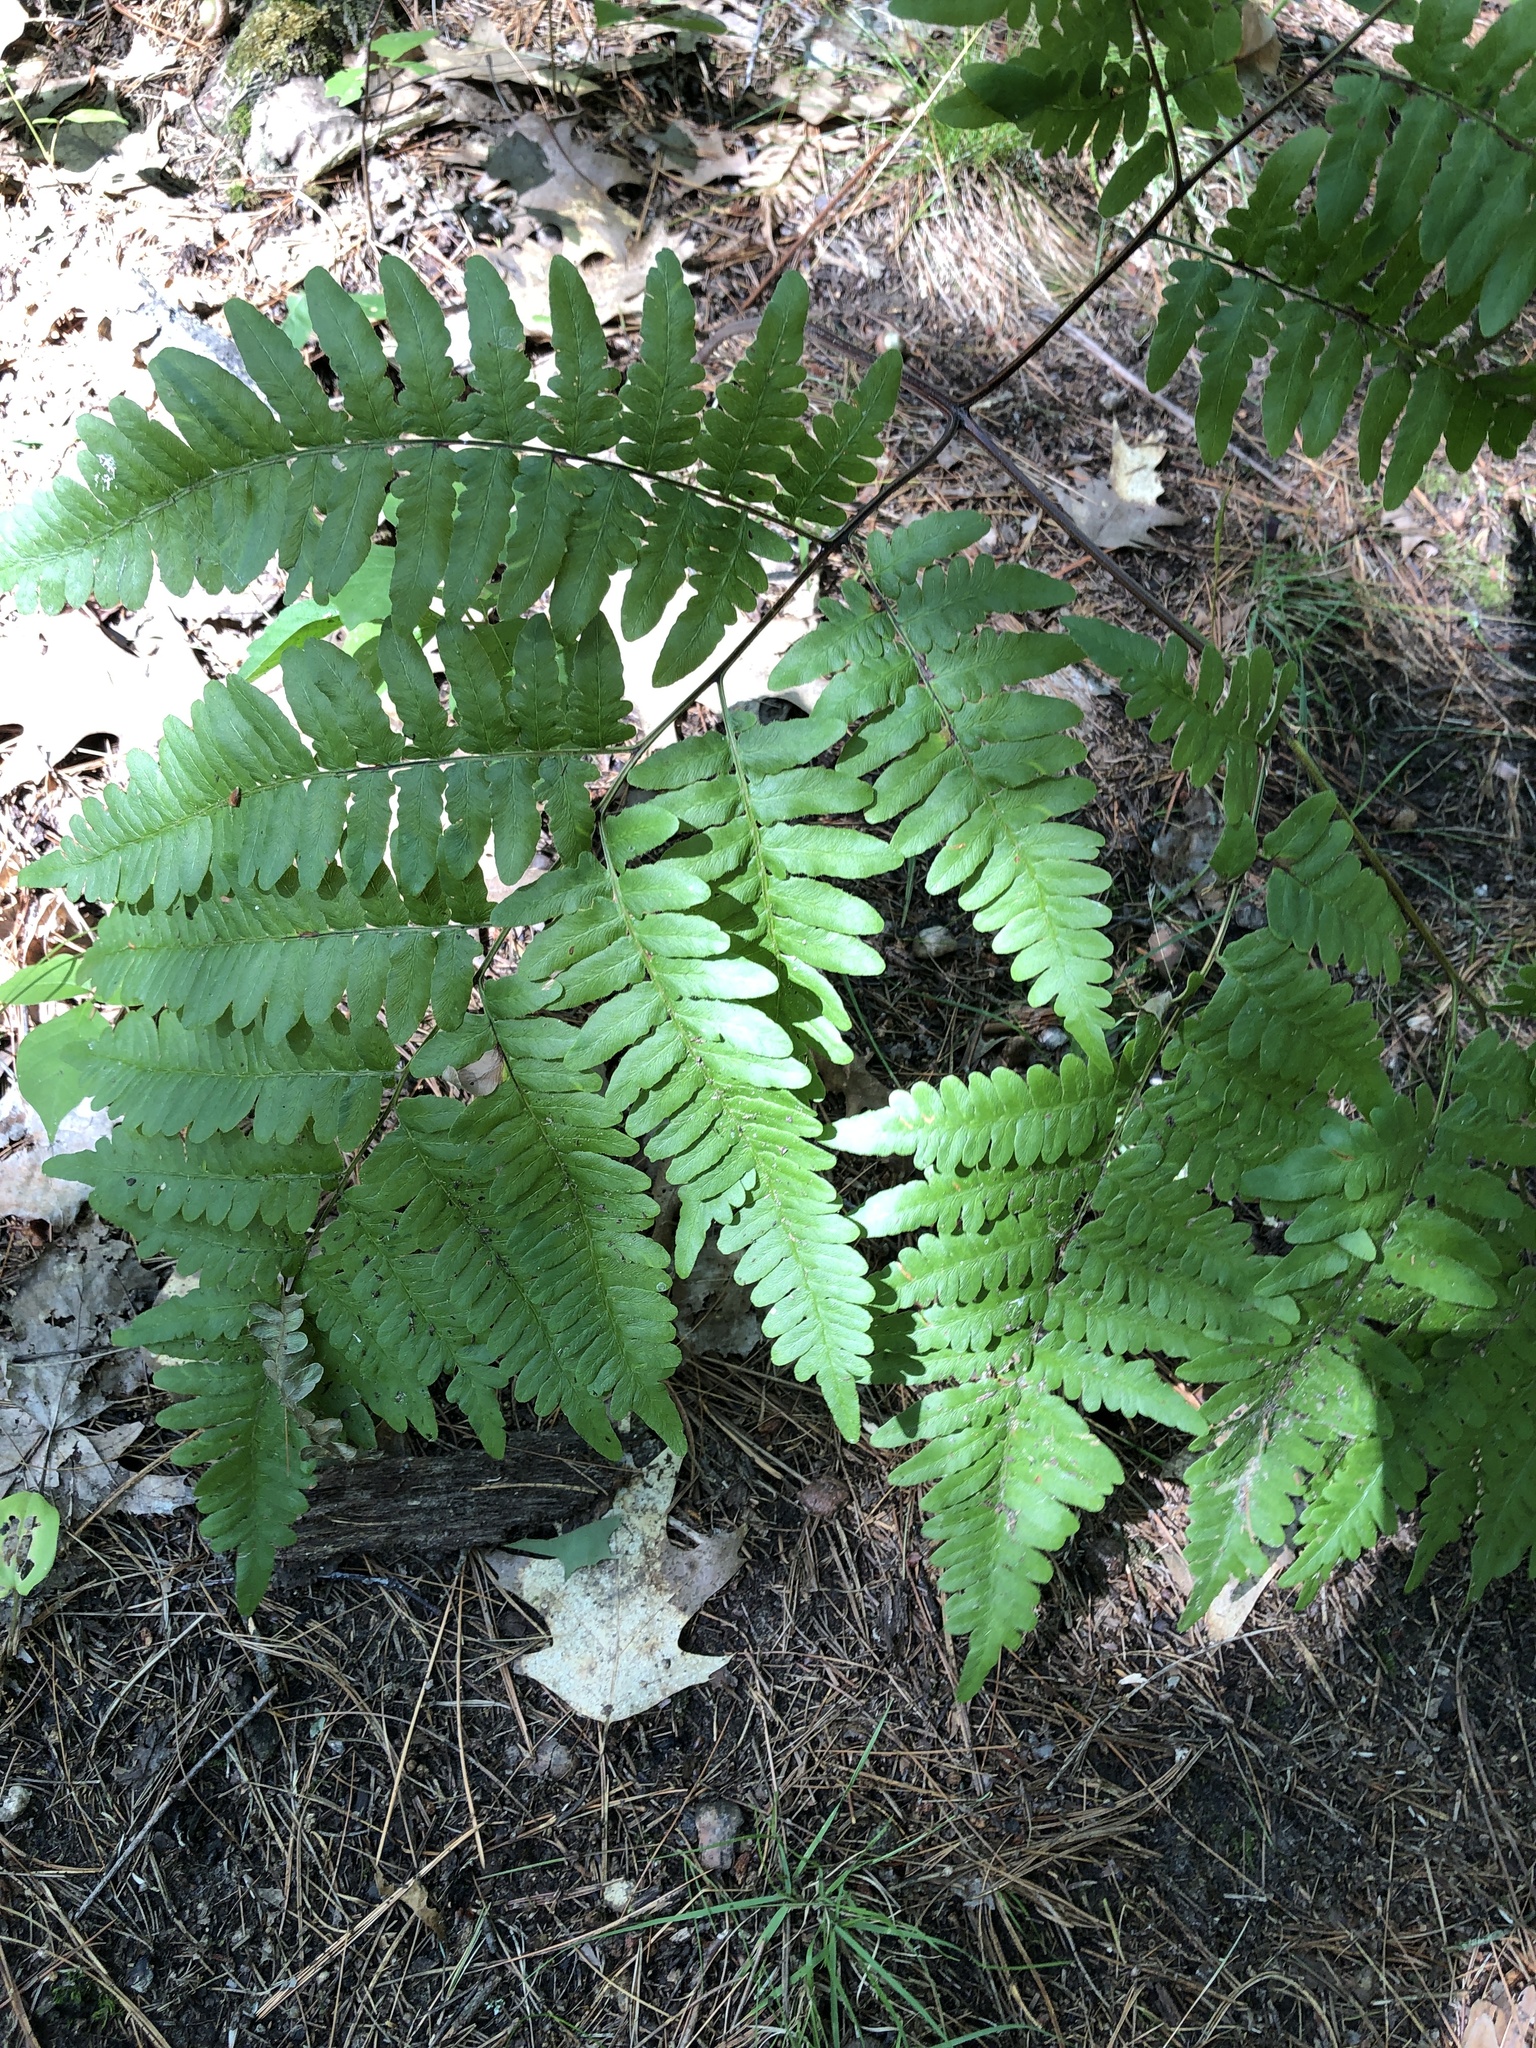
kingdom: Plantae
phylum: Tracheophyta
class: Polypodiopsida
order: Polypodiales
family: Dennstaedtiaceae
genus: Pteridium
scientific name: Pteridium aquilinum
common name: Bracken
